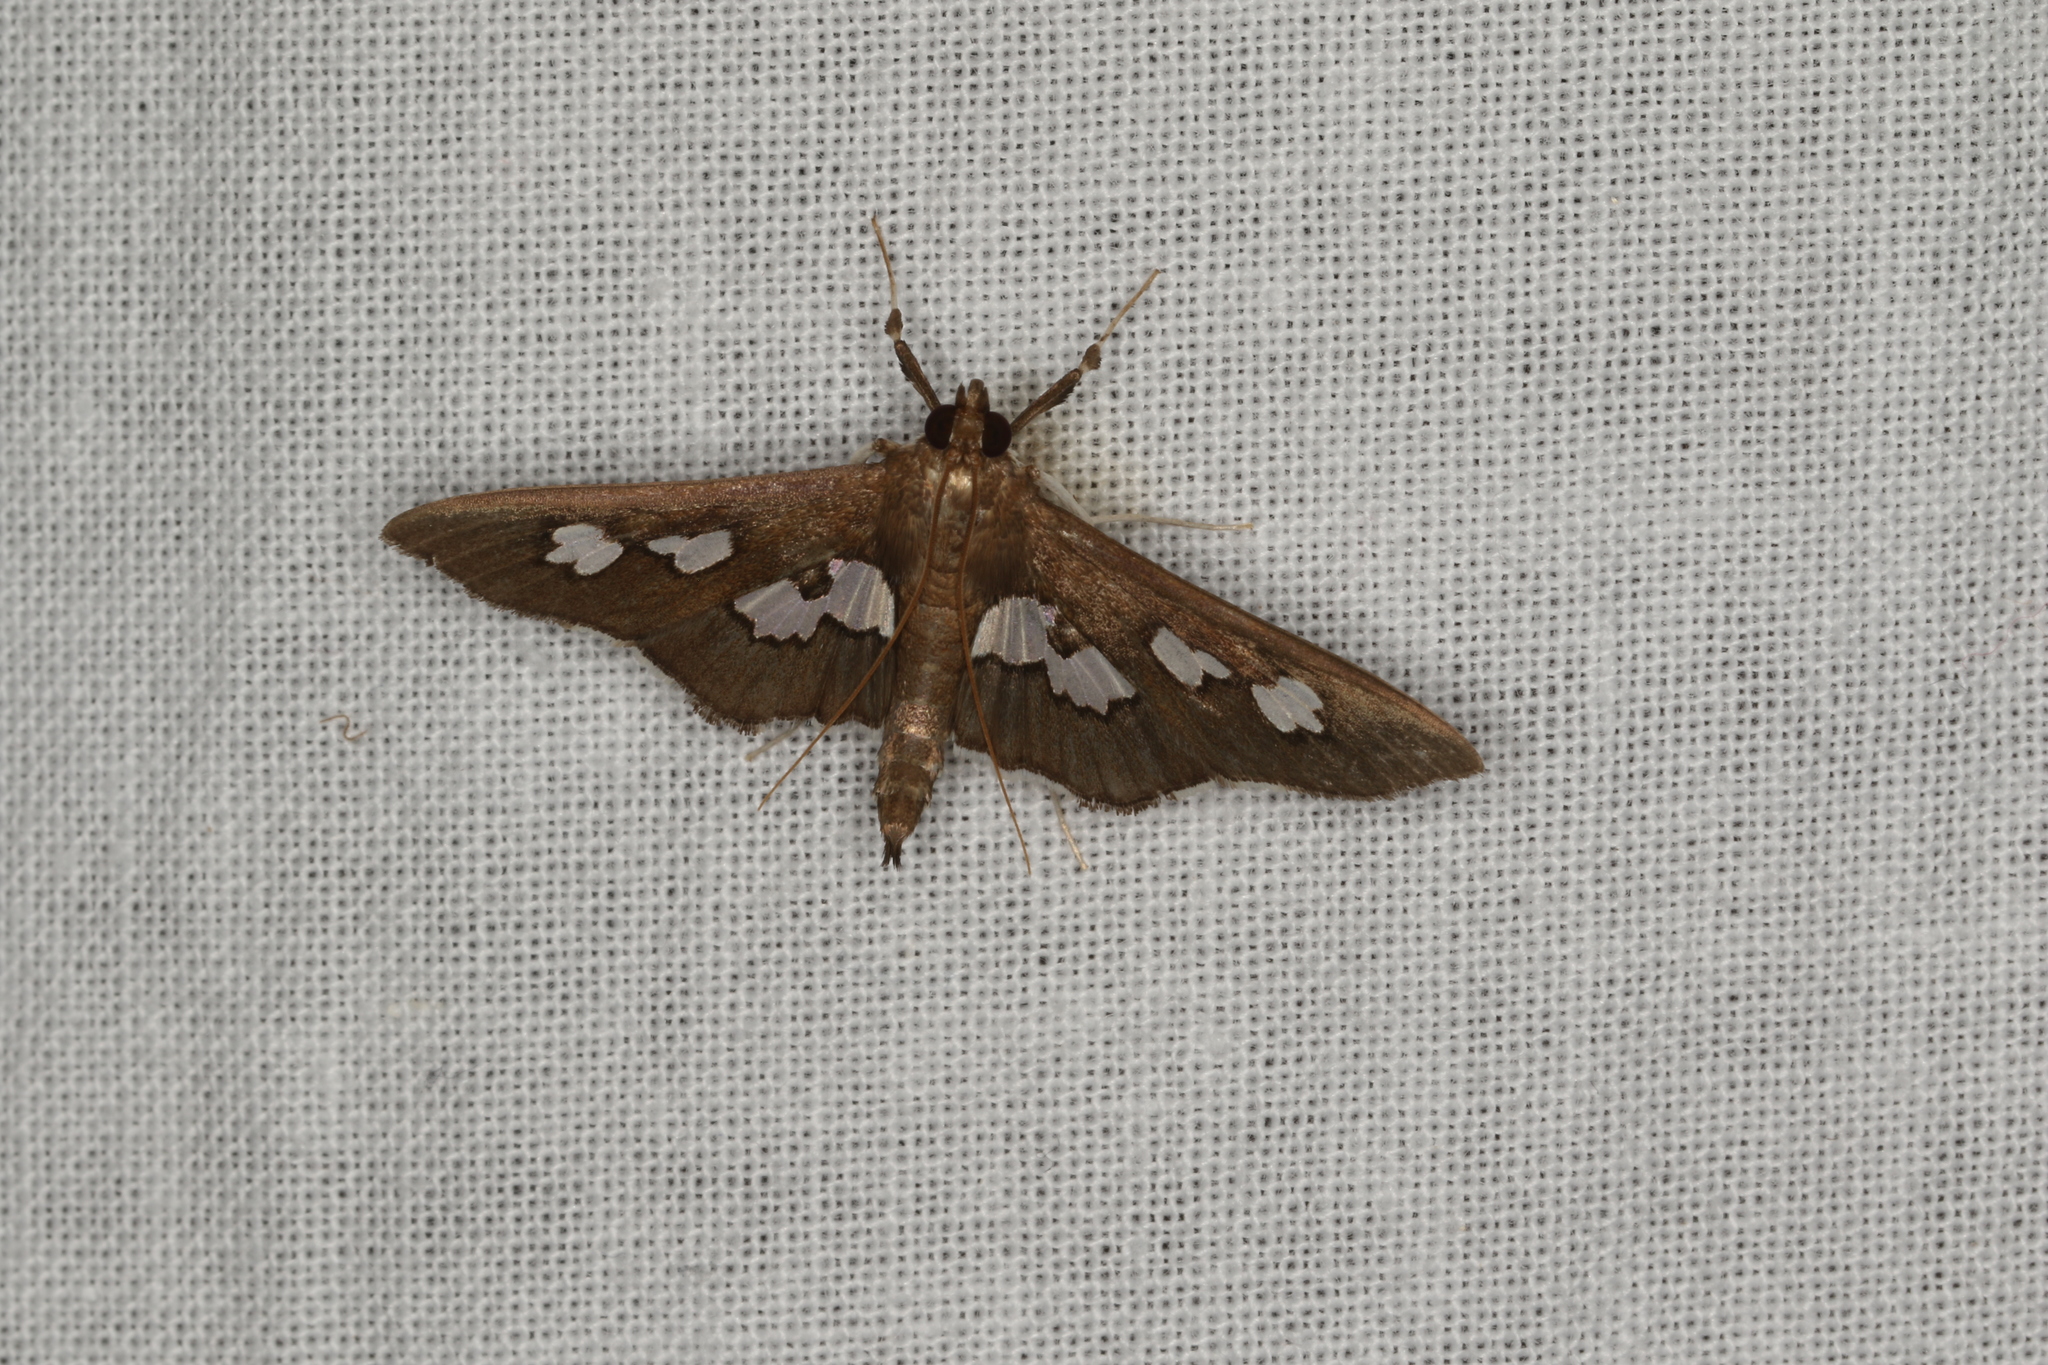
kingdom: Animalia
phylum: Arthropoda
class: Insecta
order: Lepidoptera
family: Crambidae
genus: Omiodes
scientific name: Omiodes odontosticta
